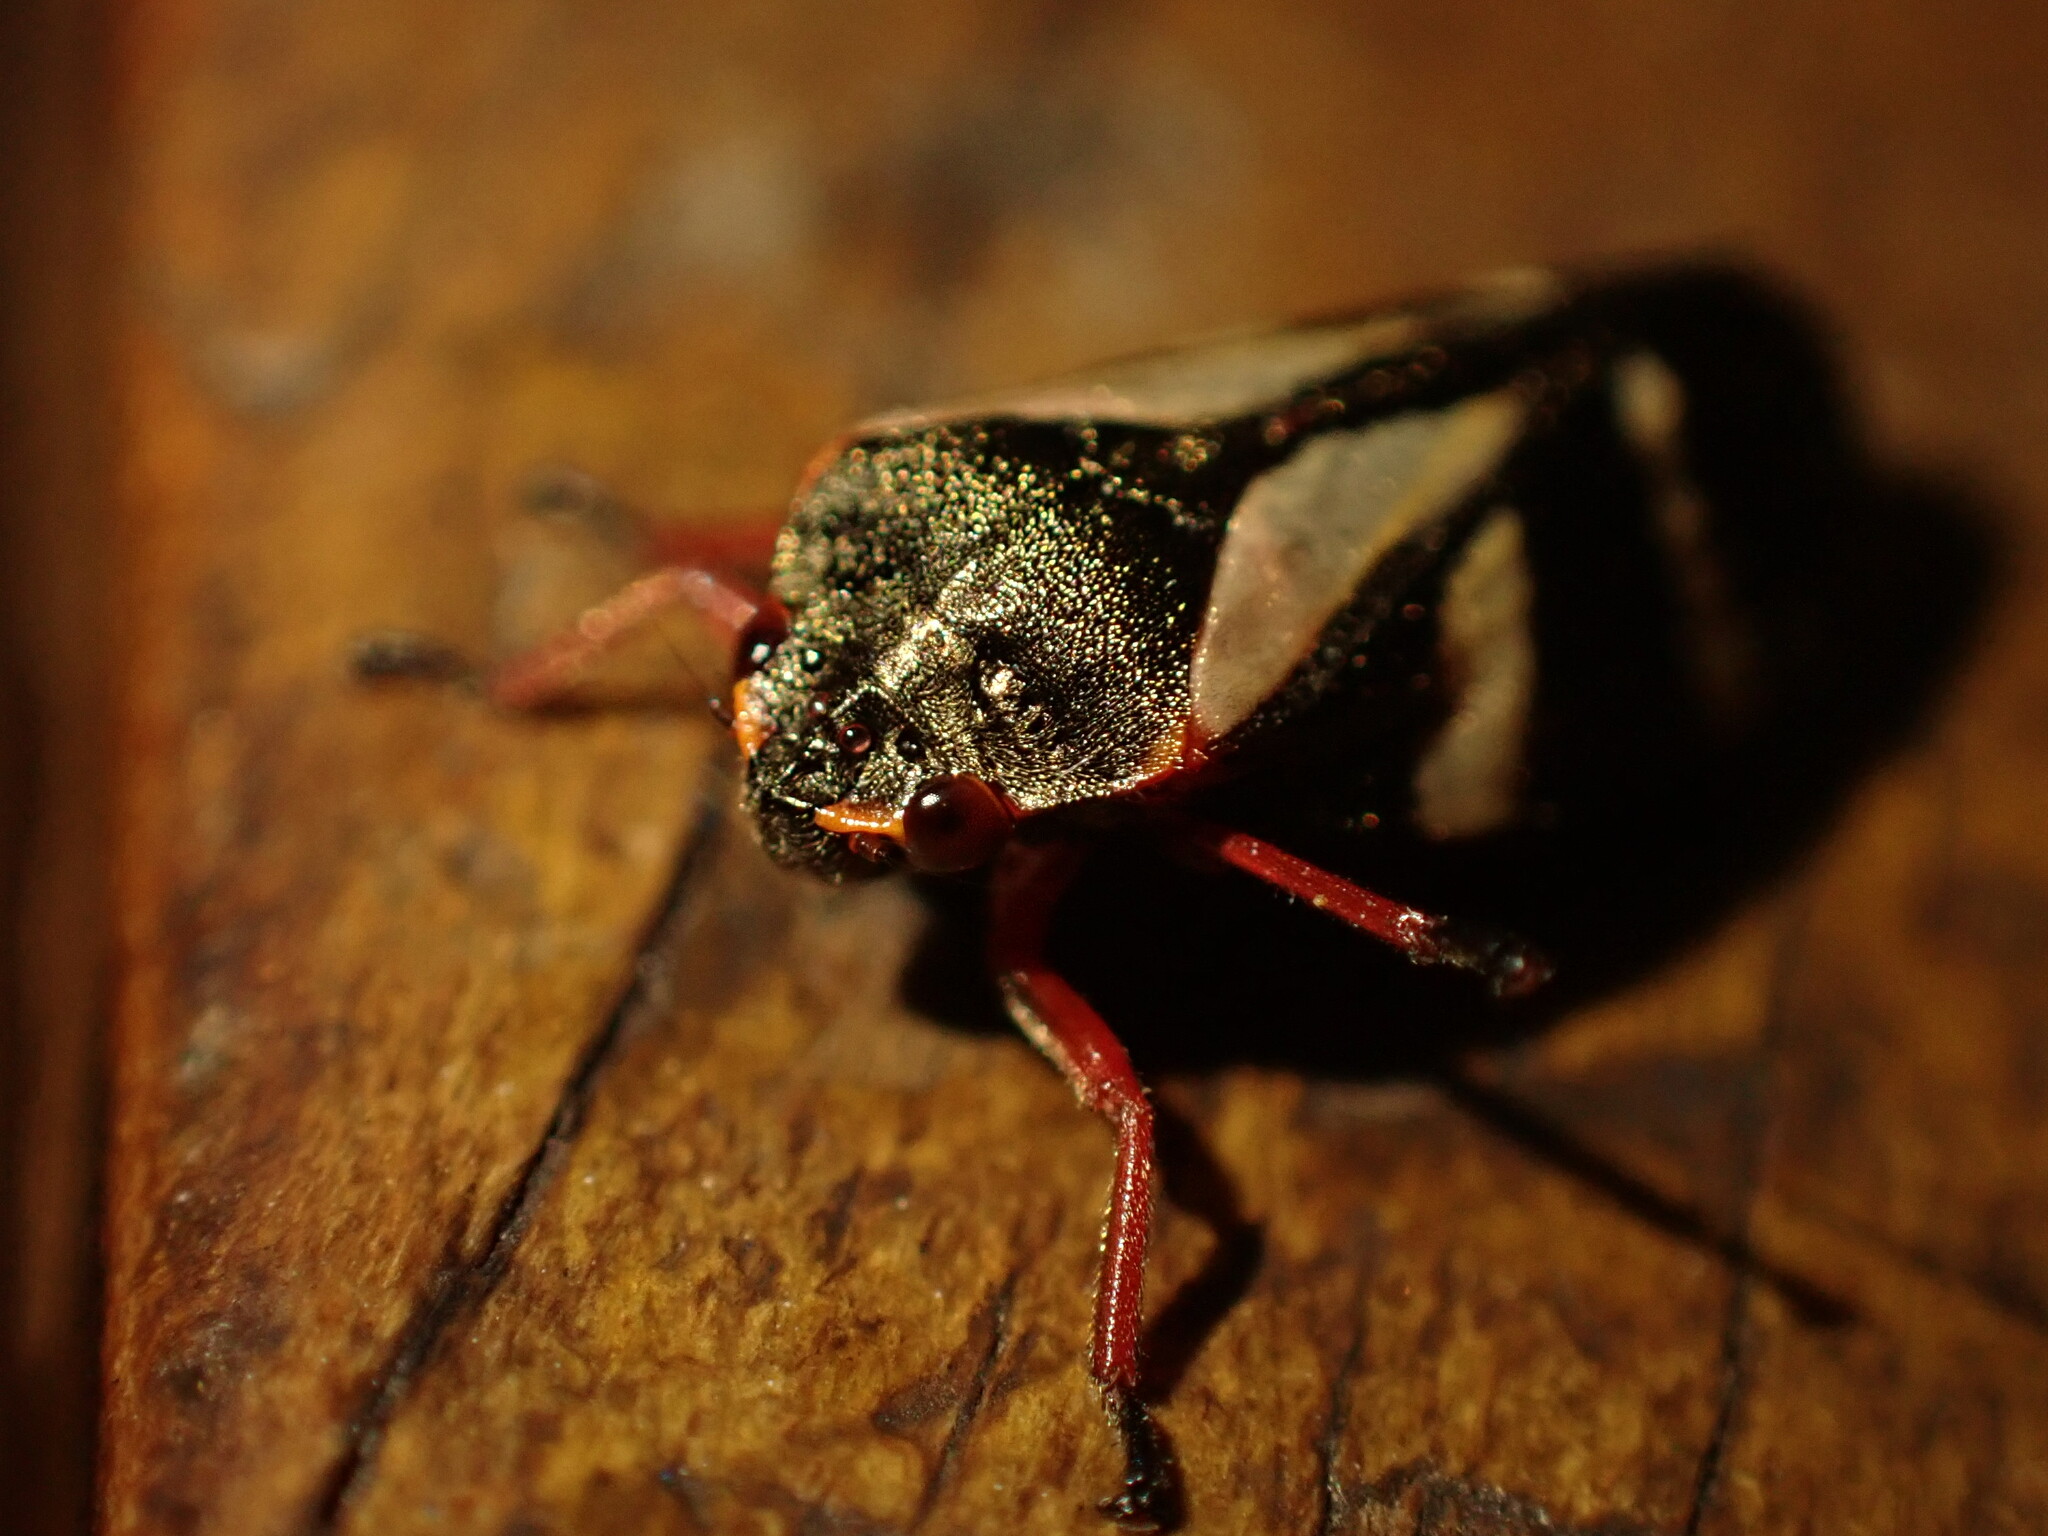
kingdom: Animalia
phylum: Arthropoda
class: Insecta
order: Hemiptera
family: Cercopidae
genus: Deois
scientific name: Deois flavopicta
